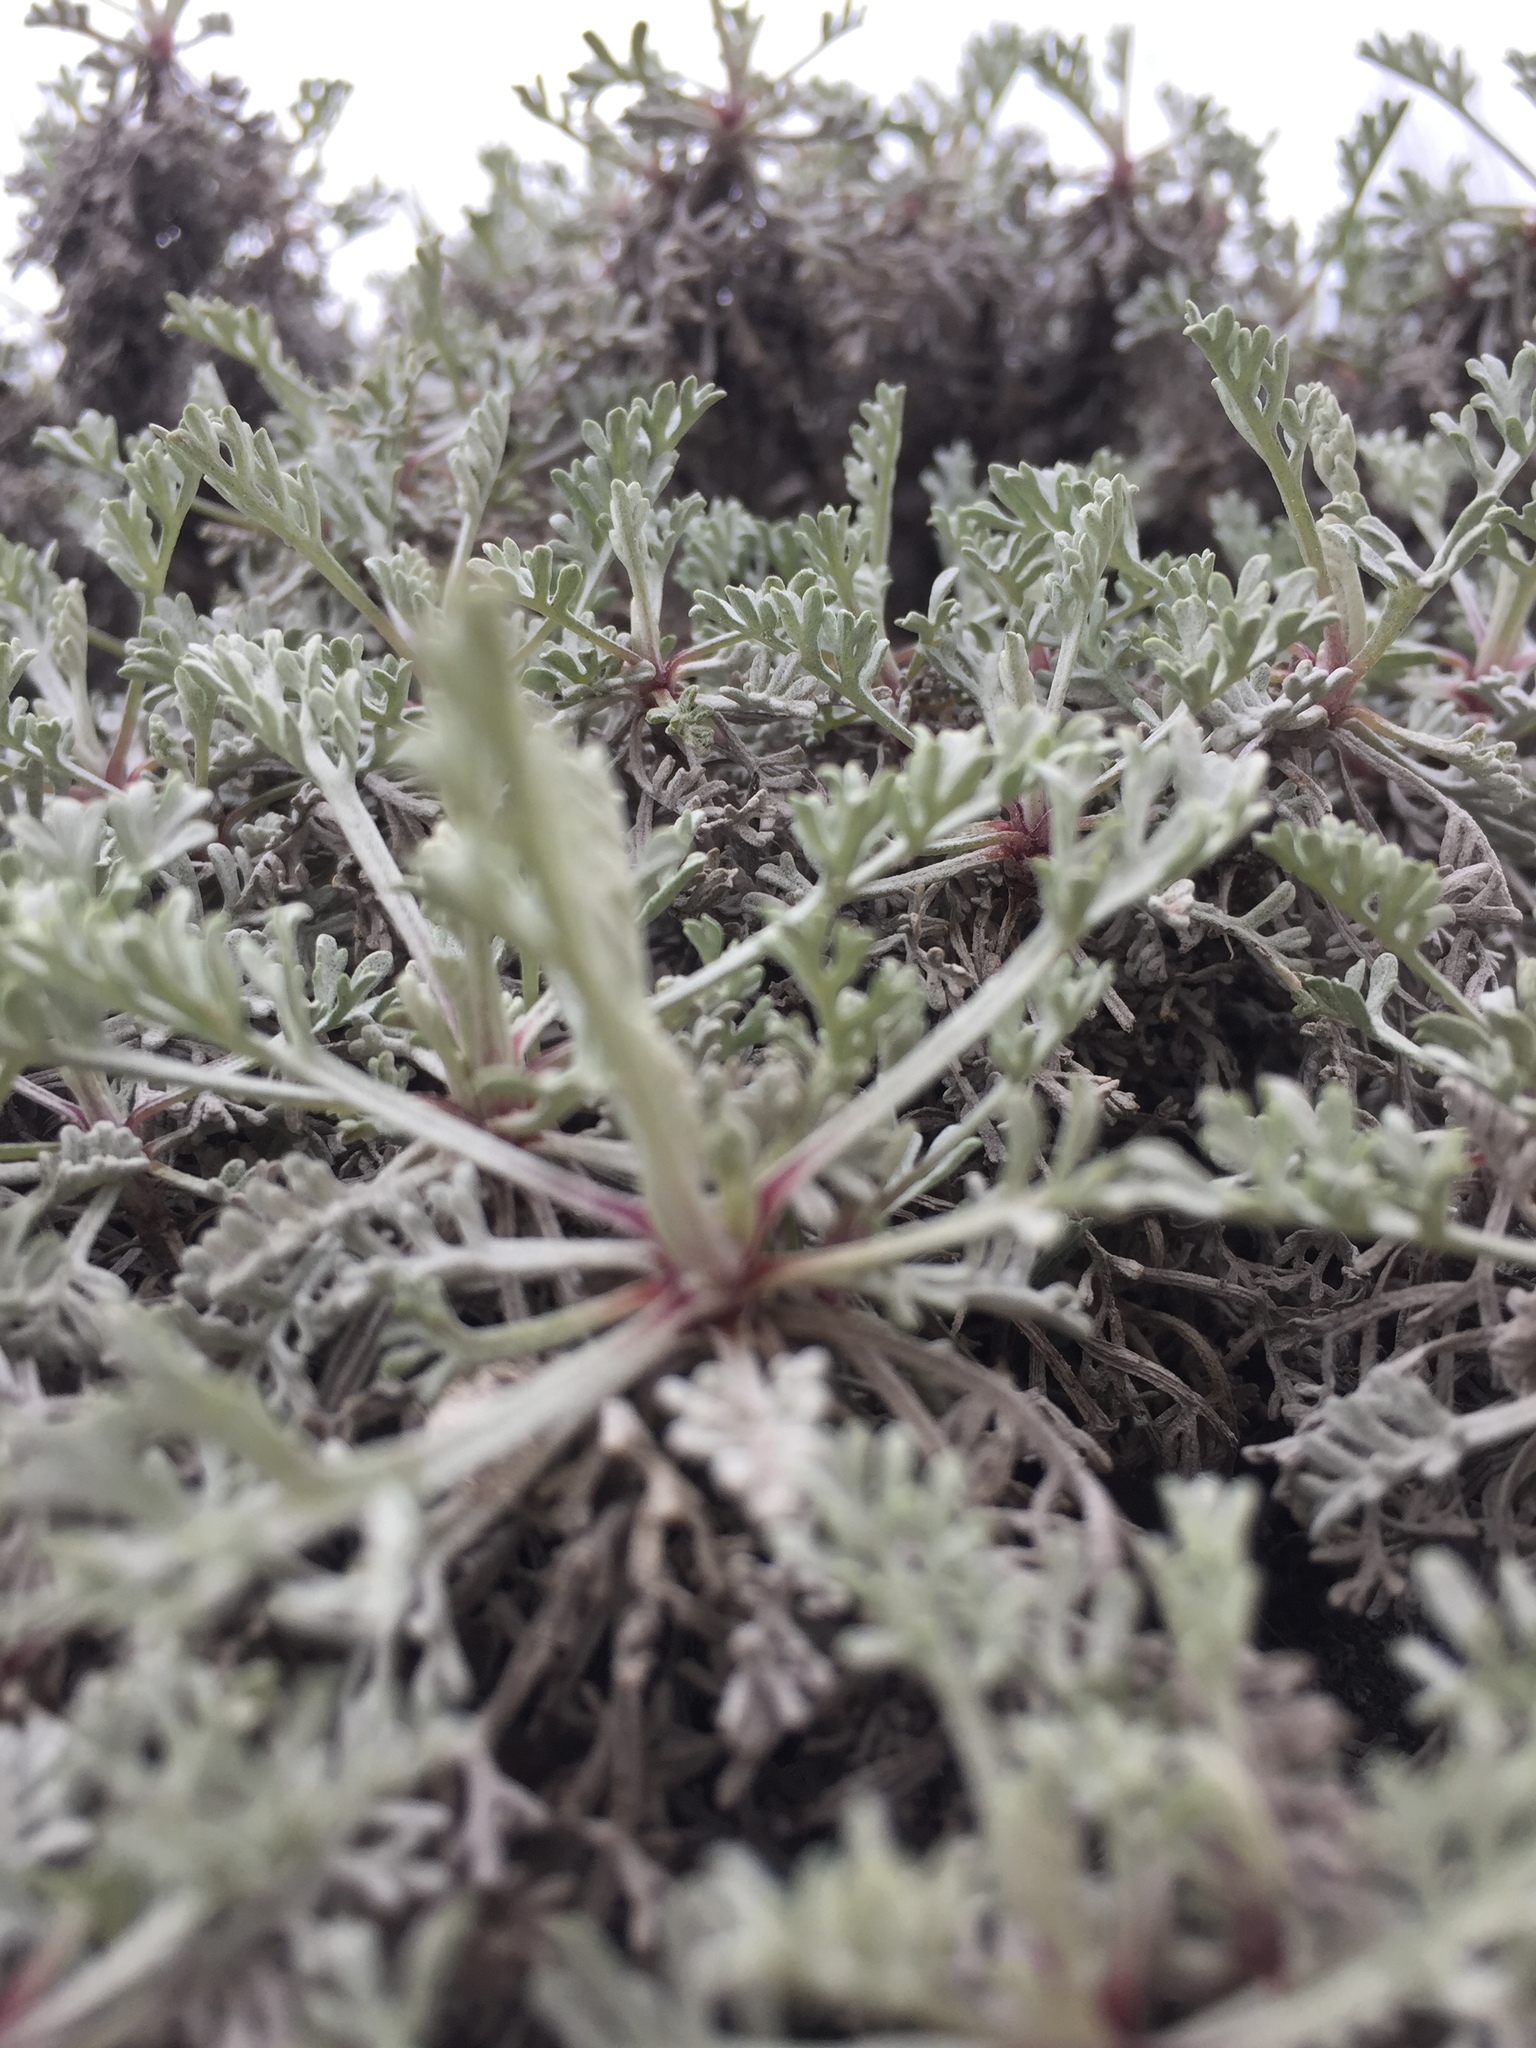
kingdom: Plantae
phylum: Tracheophyta
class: Magnoliopsida
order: Asterales
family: Asteraceae
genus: Artemisia
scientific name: Artemisia hololeuca
